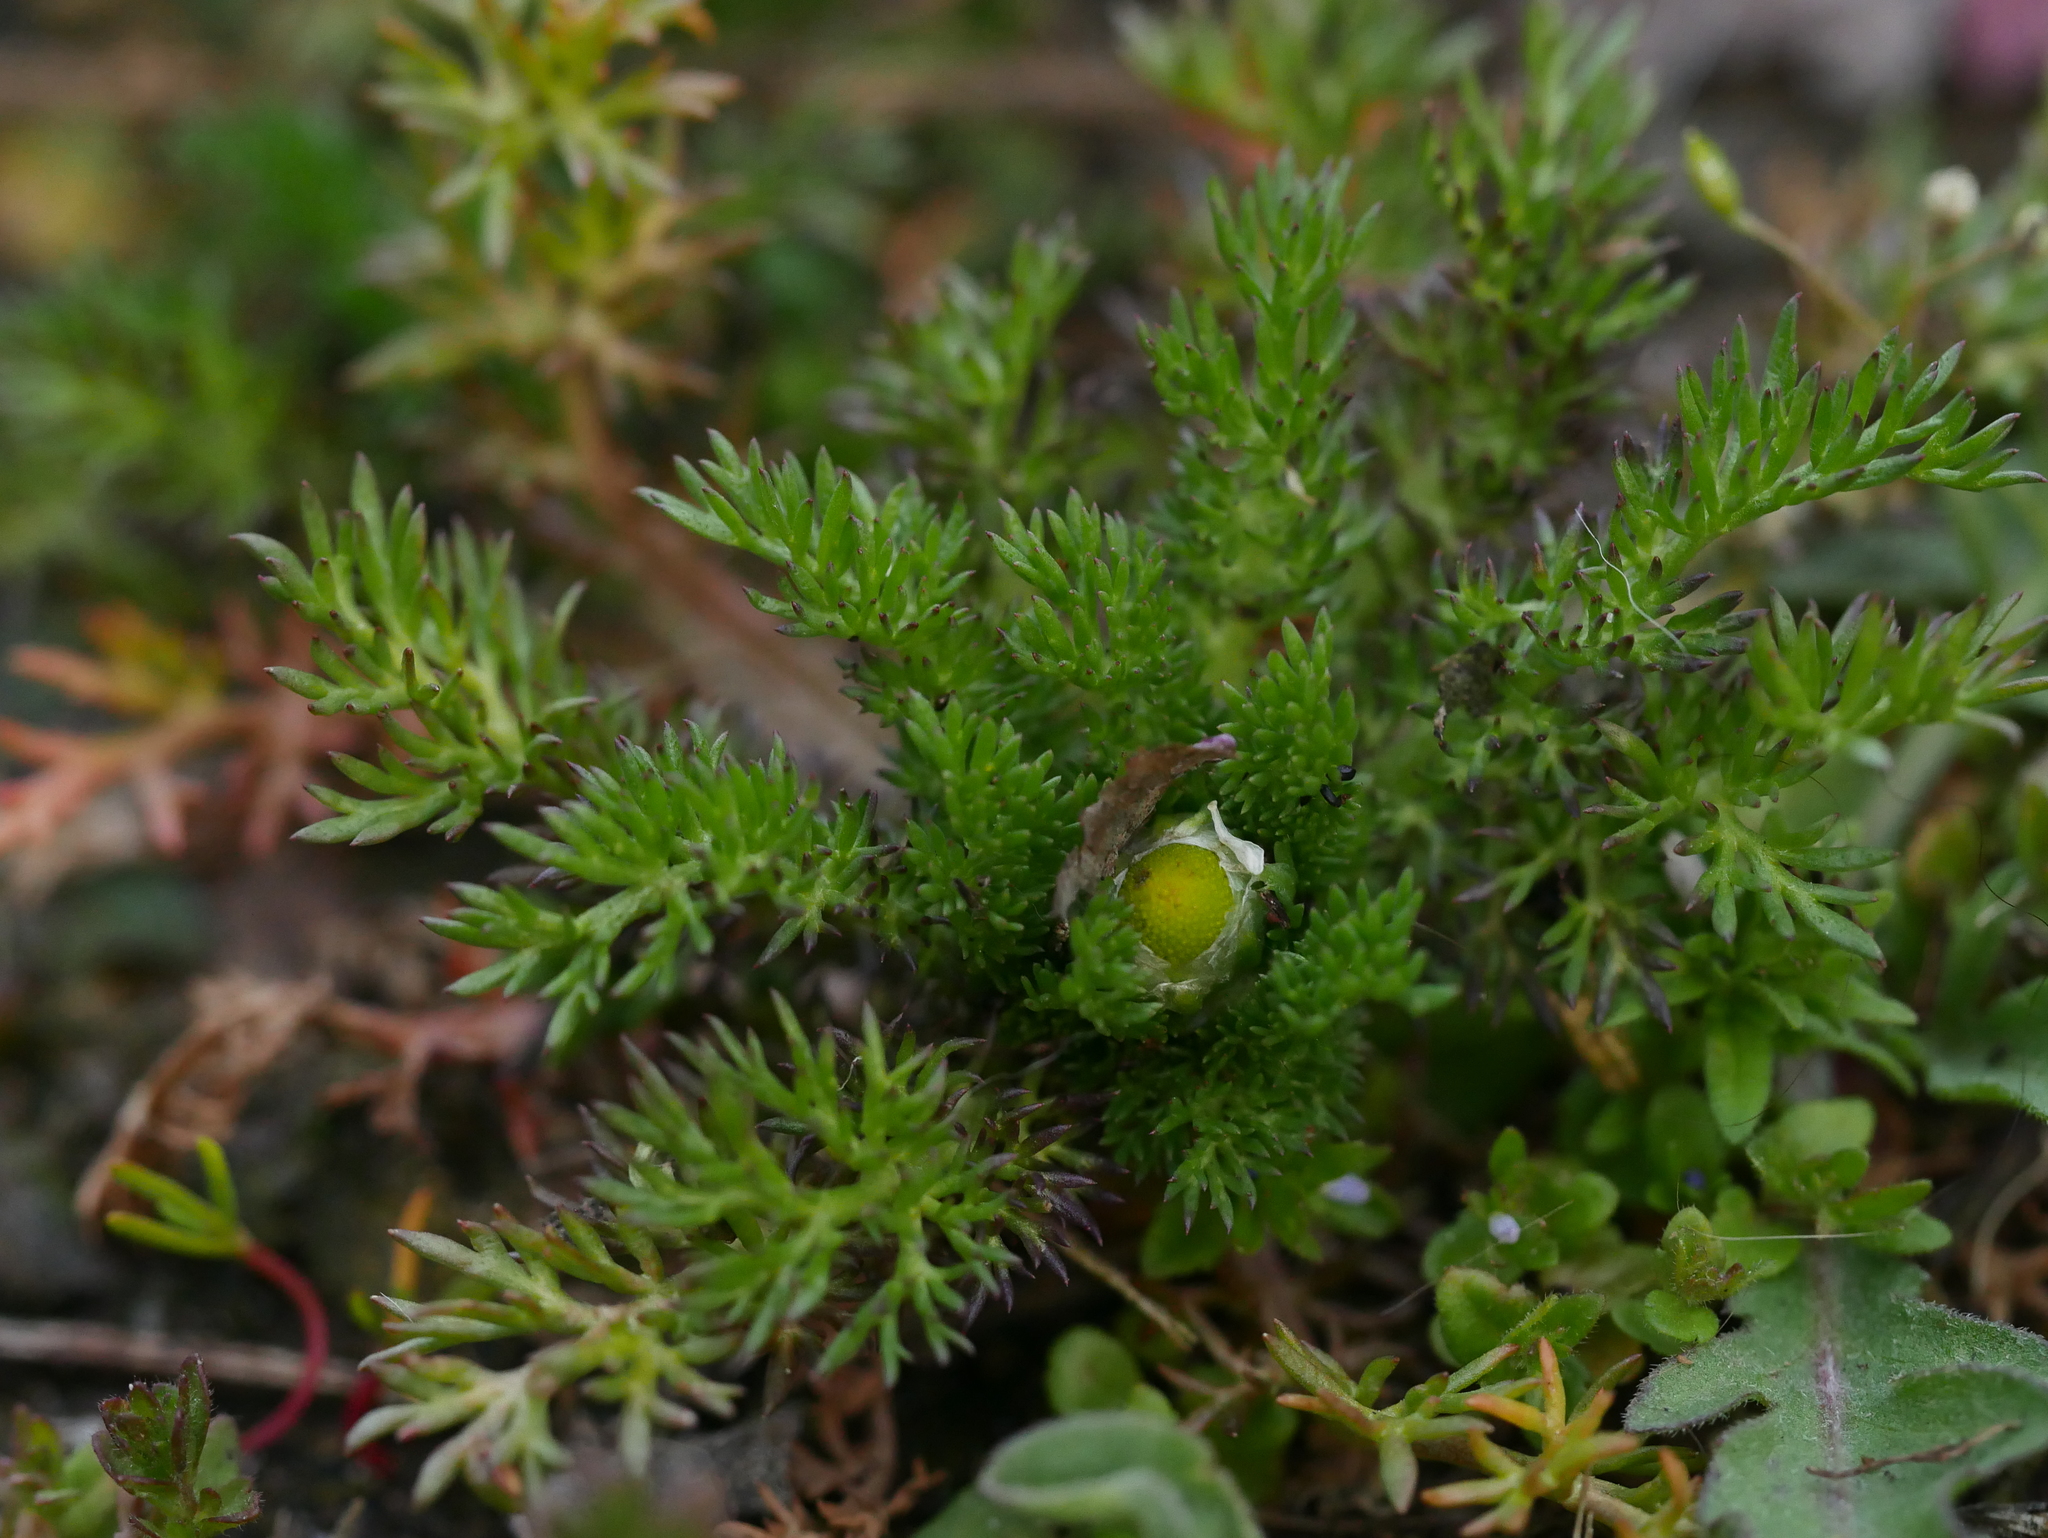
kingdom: Plantae
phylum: Tracheophyta
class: Magnoliopsida
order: Asterales
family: Asteraceae
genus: Matricaria
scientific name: Matricaria discoidea
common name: Disc mayweed
